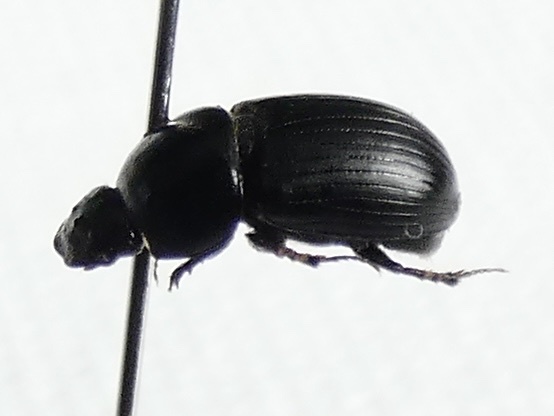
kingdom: Animalia
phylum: Arthropoda
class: Insecta
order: Coleoptera
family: Scarabaeidae
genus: Agrilinus
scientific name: Agrilinus ater
